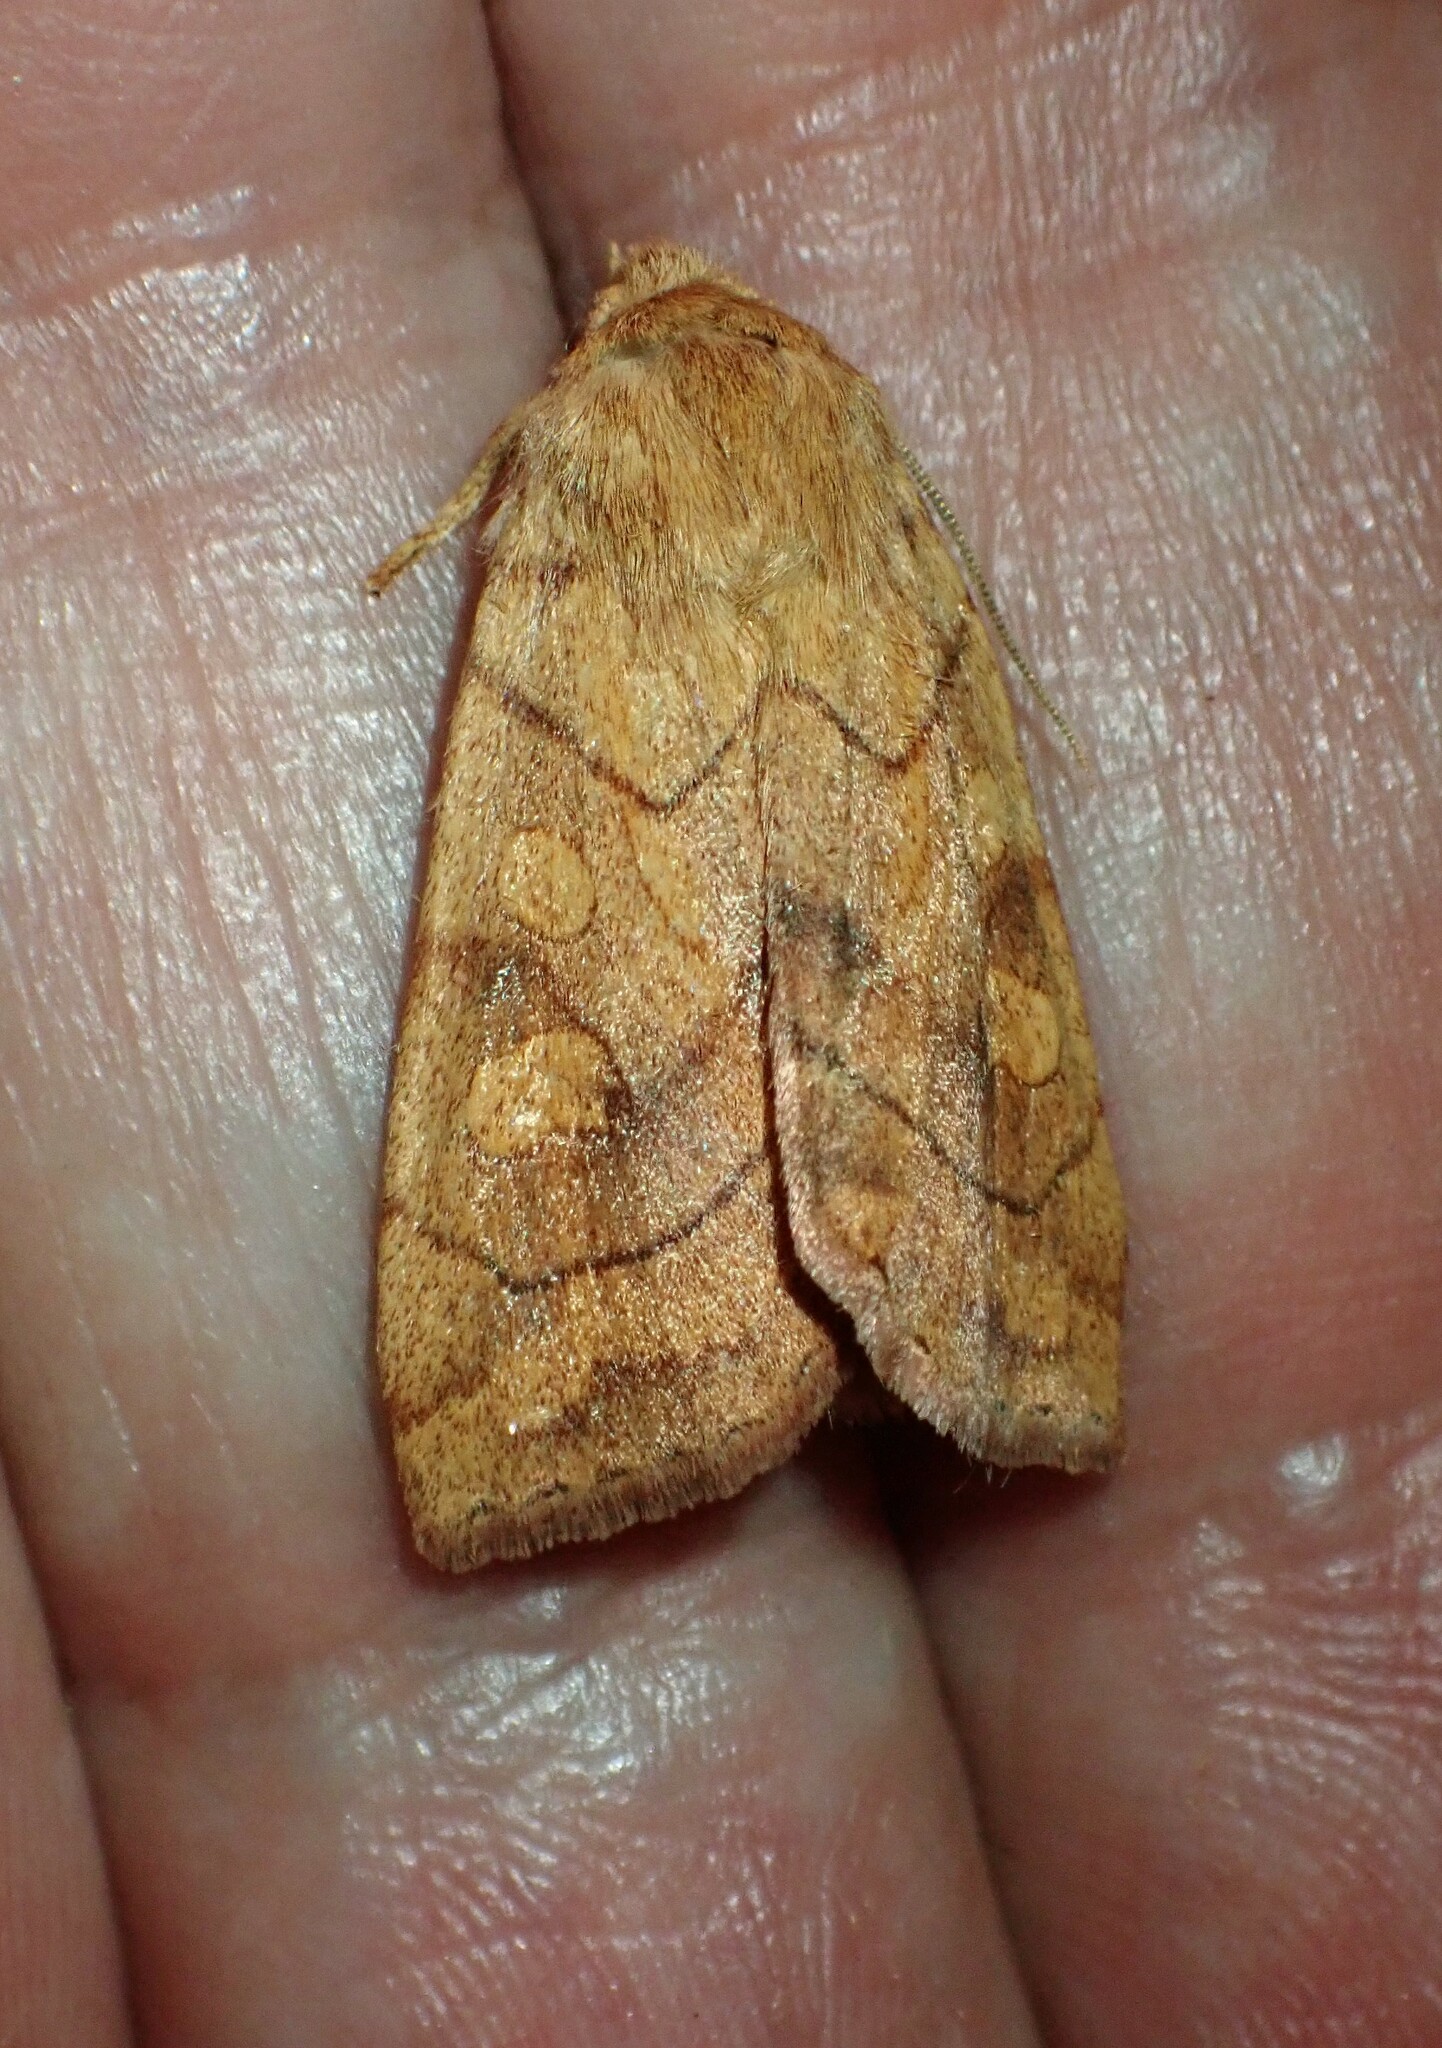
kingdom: Animalia
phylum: Arthropoda
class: Insecta
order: Lepidoptera
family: Noctuidae
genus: Enargia
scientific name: Enargia decolor
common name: Aspen twoleaf tier moth
